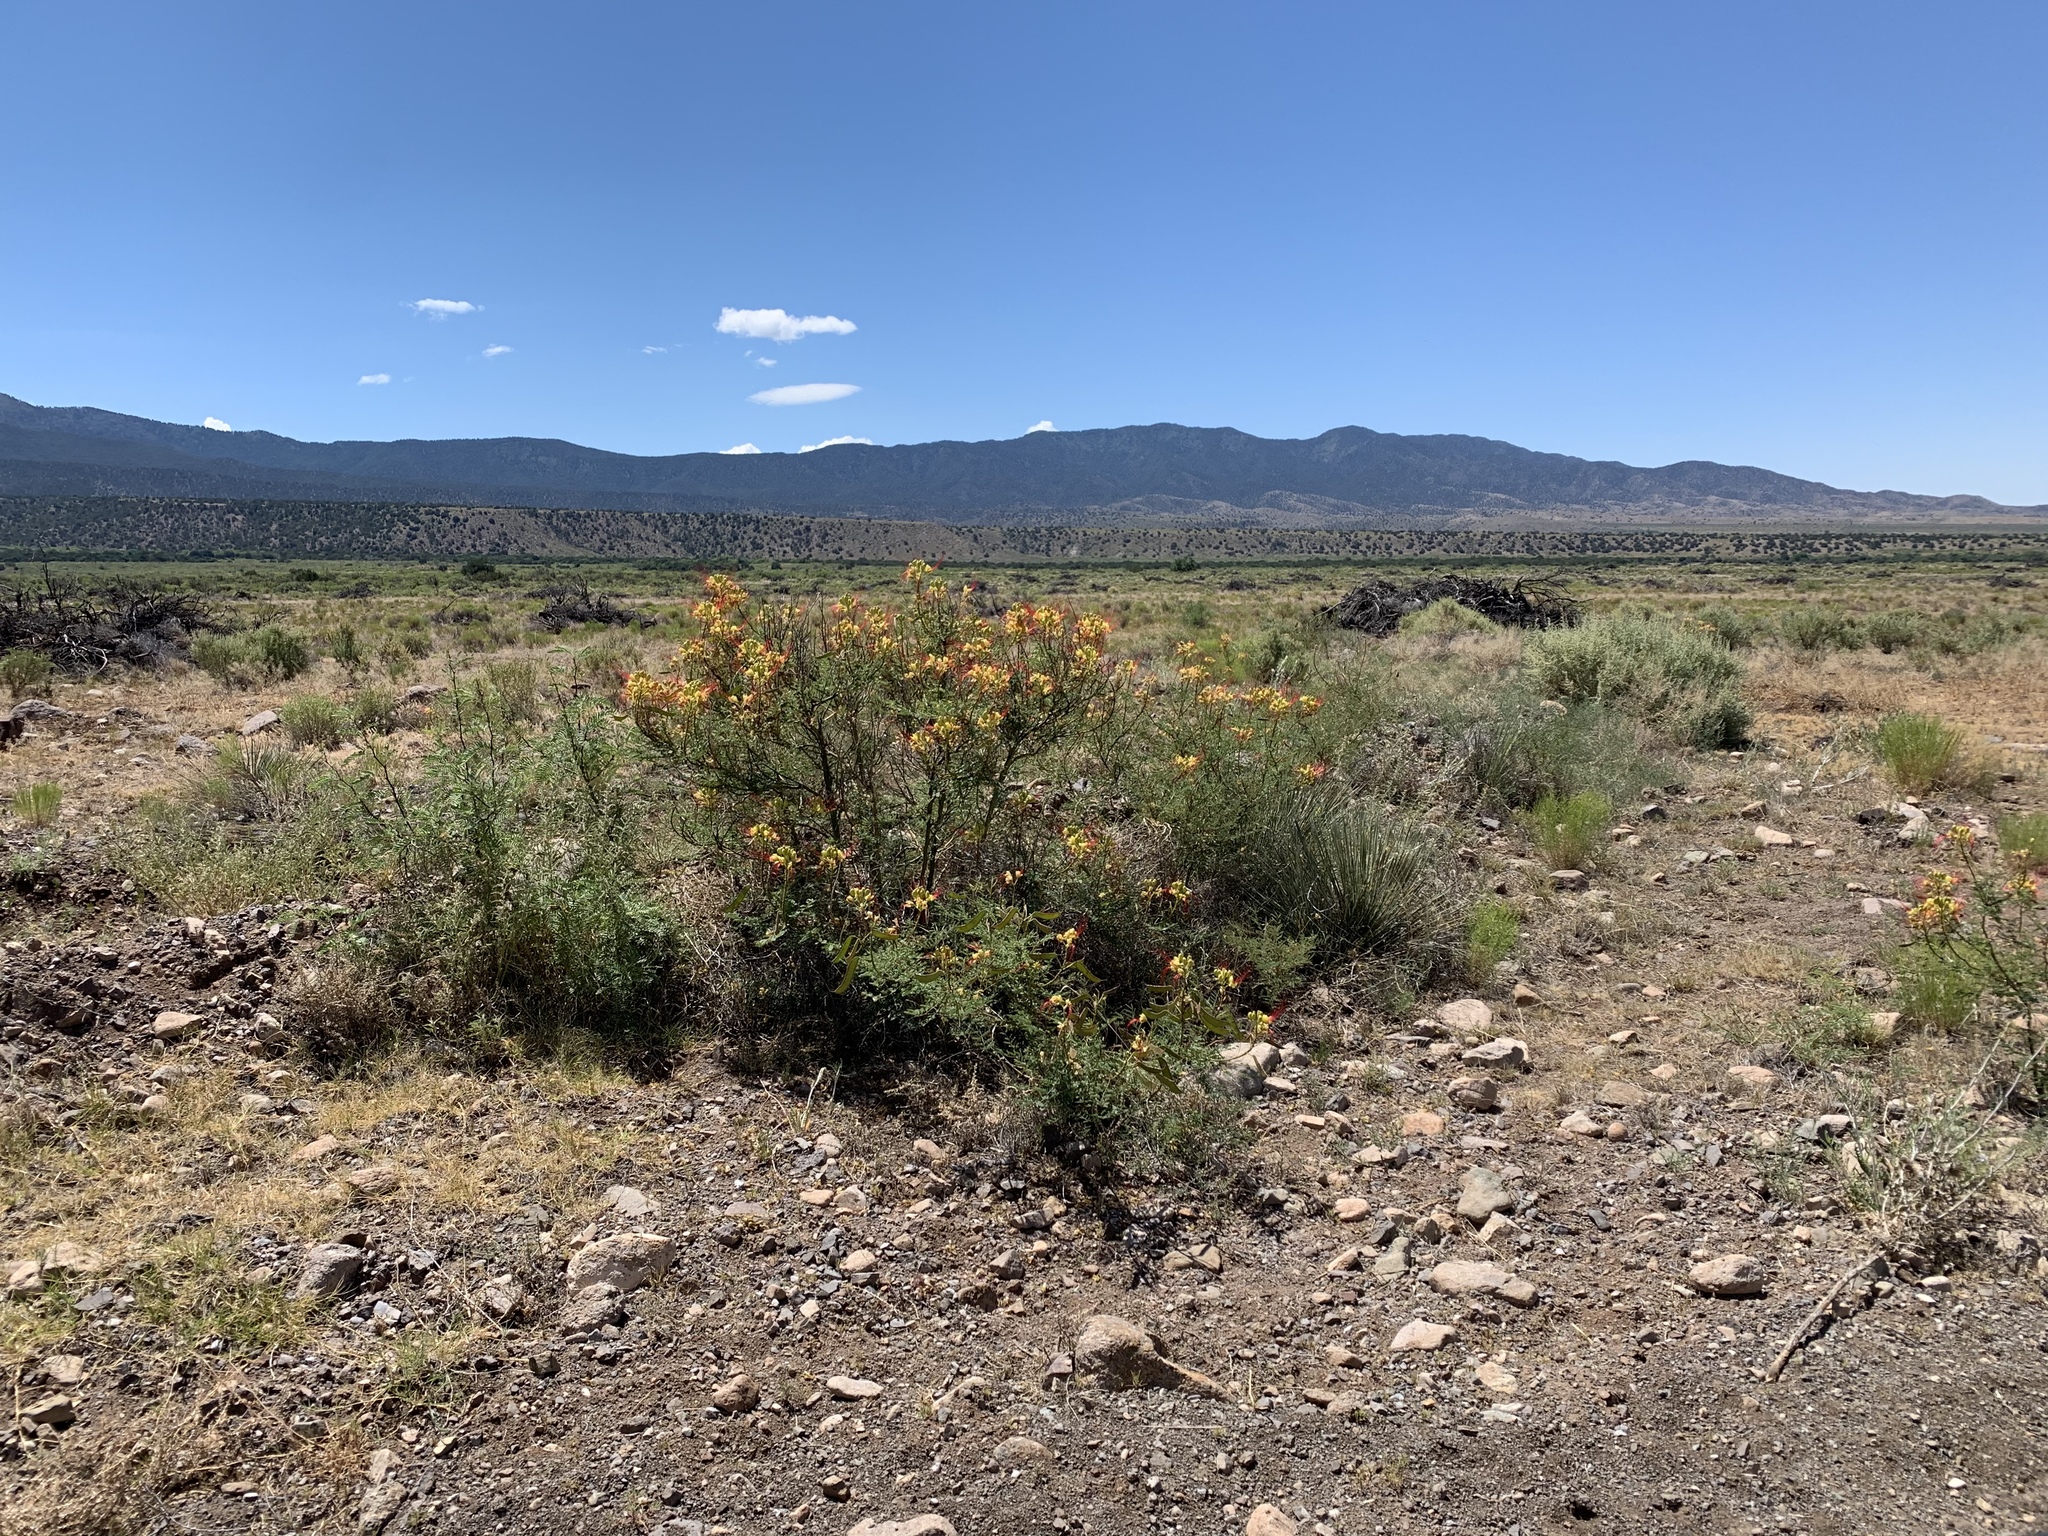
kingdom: Plantae
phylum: Tracheophyta
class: Magnoliopsida
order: Fabales
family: Fabaceae
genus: Erythrostemon
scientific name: Erythrostemon gilliesii
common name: Bird-of-paradise shrub
